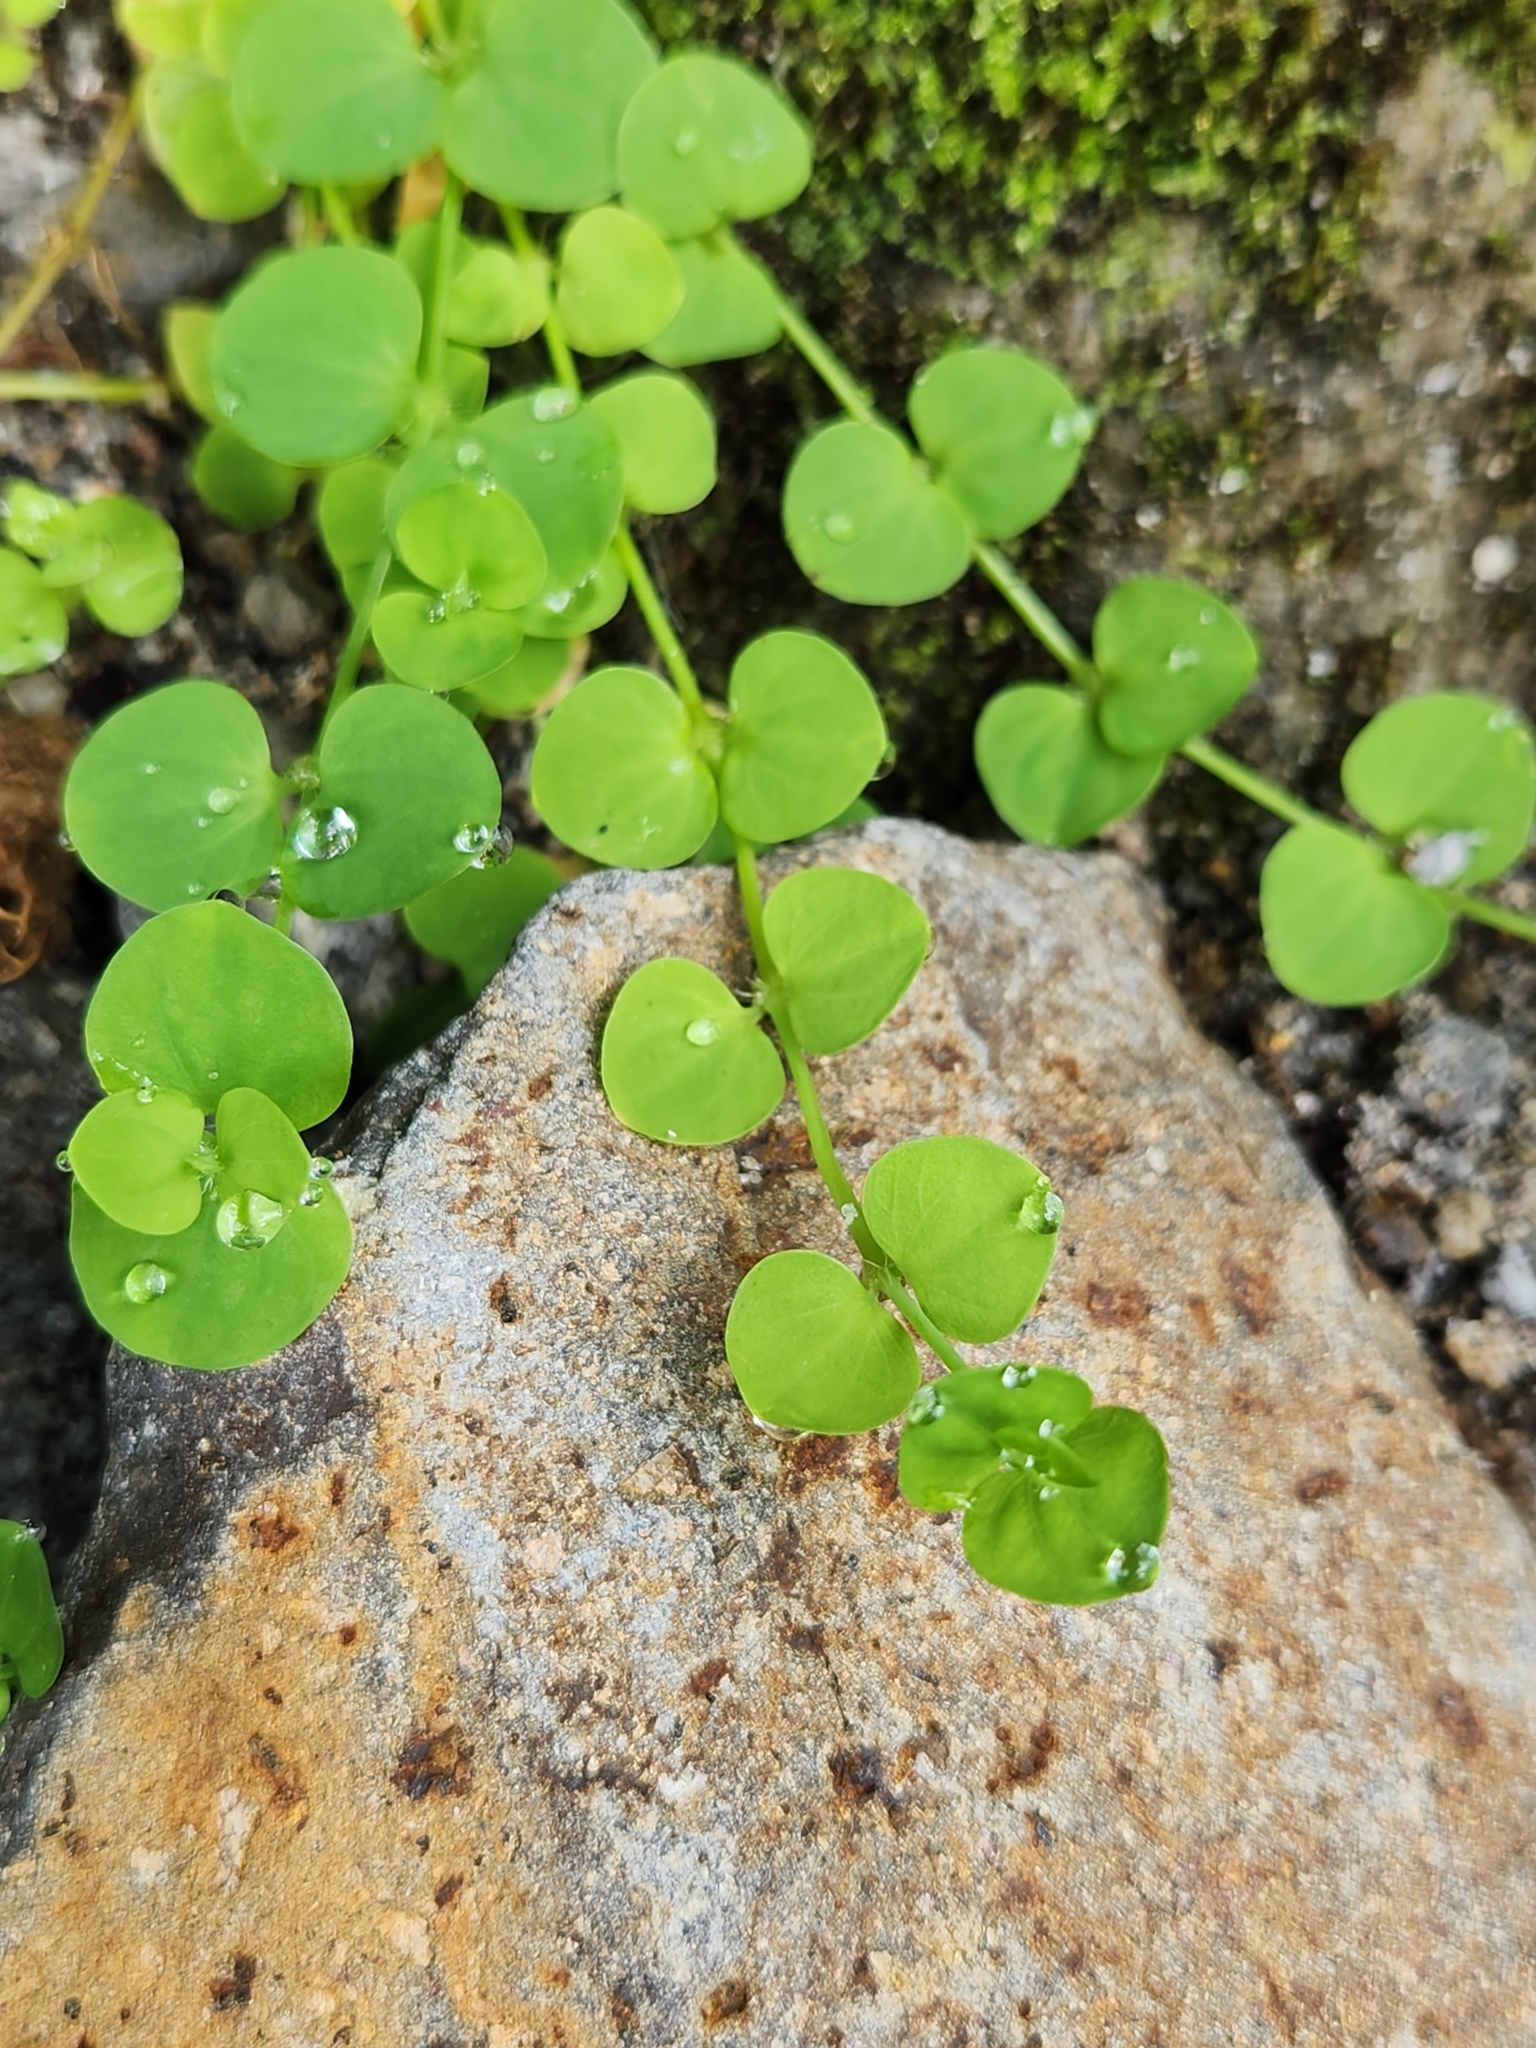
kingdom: Plantae
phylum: Tracheophyta
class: Magnoliopsida
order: Caryophyllales
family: Caryophyllaceae
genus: Drymaria
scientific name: Drymaria cordata
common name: Whitesnow
